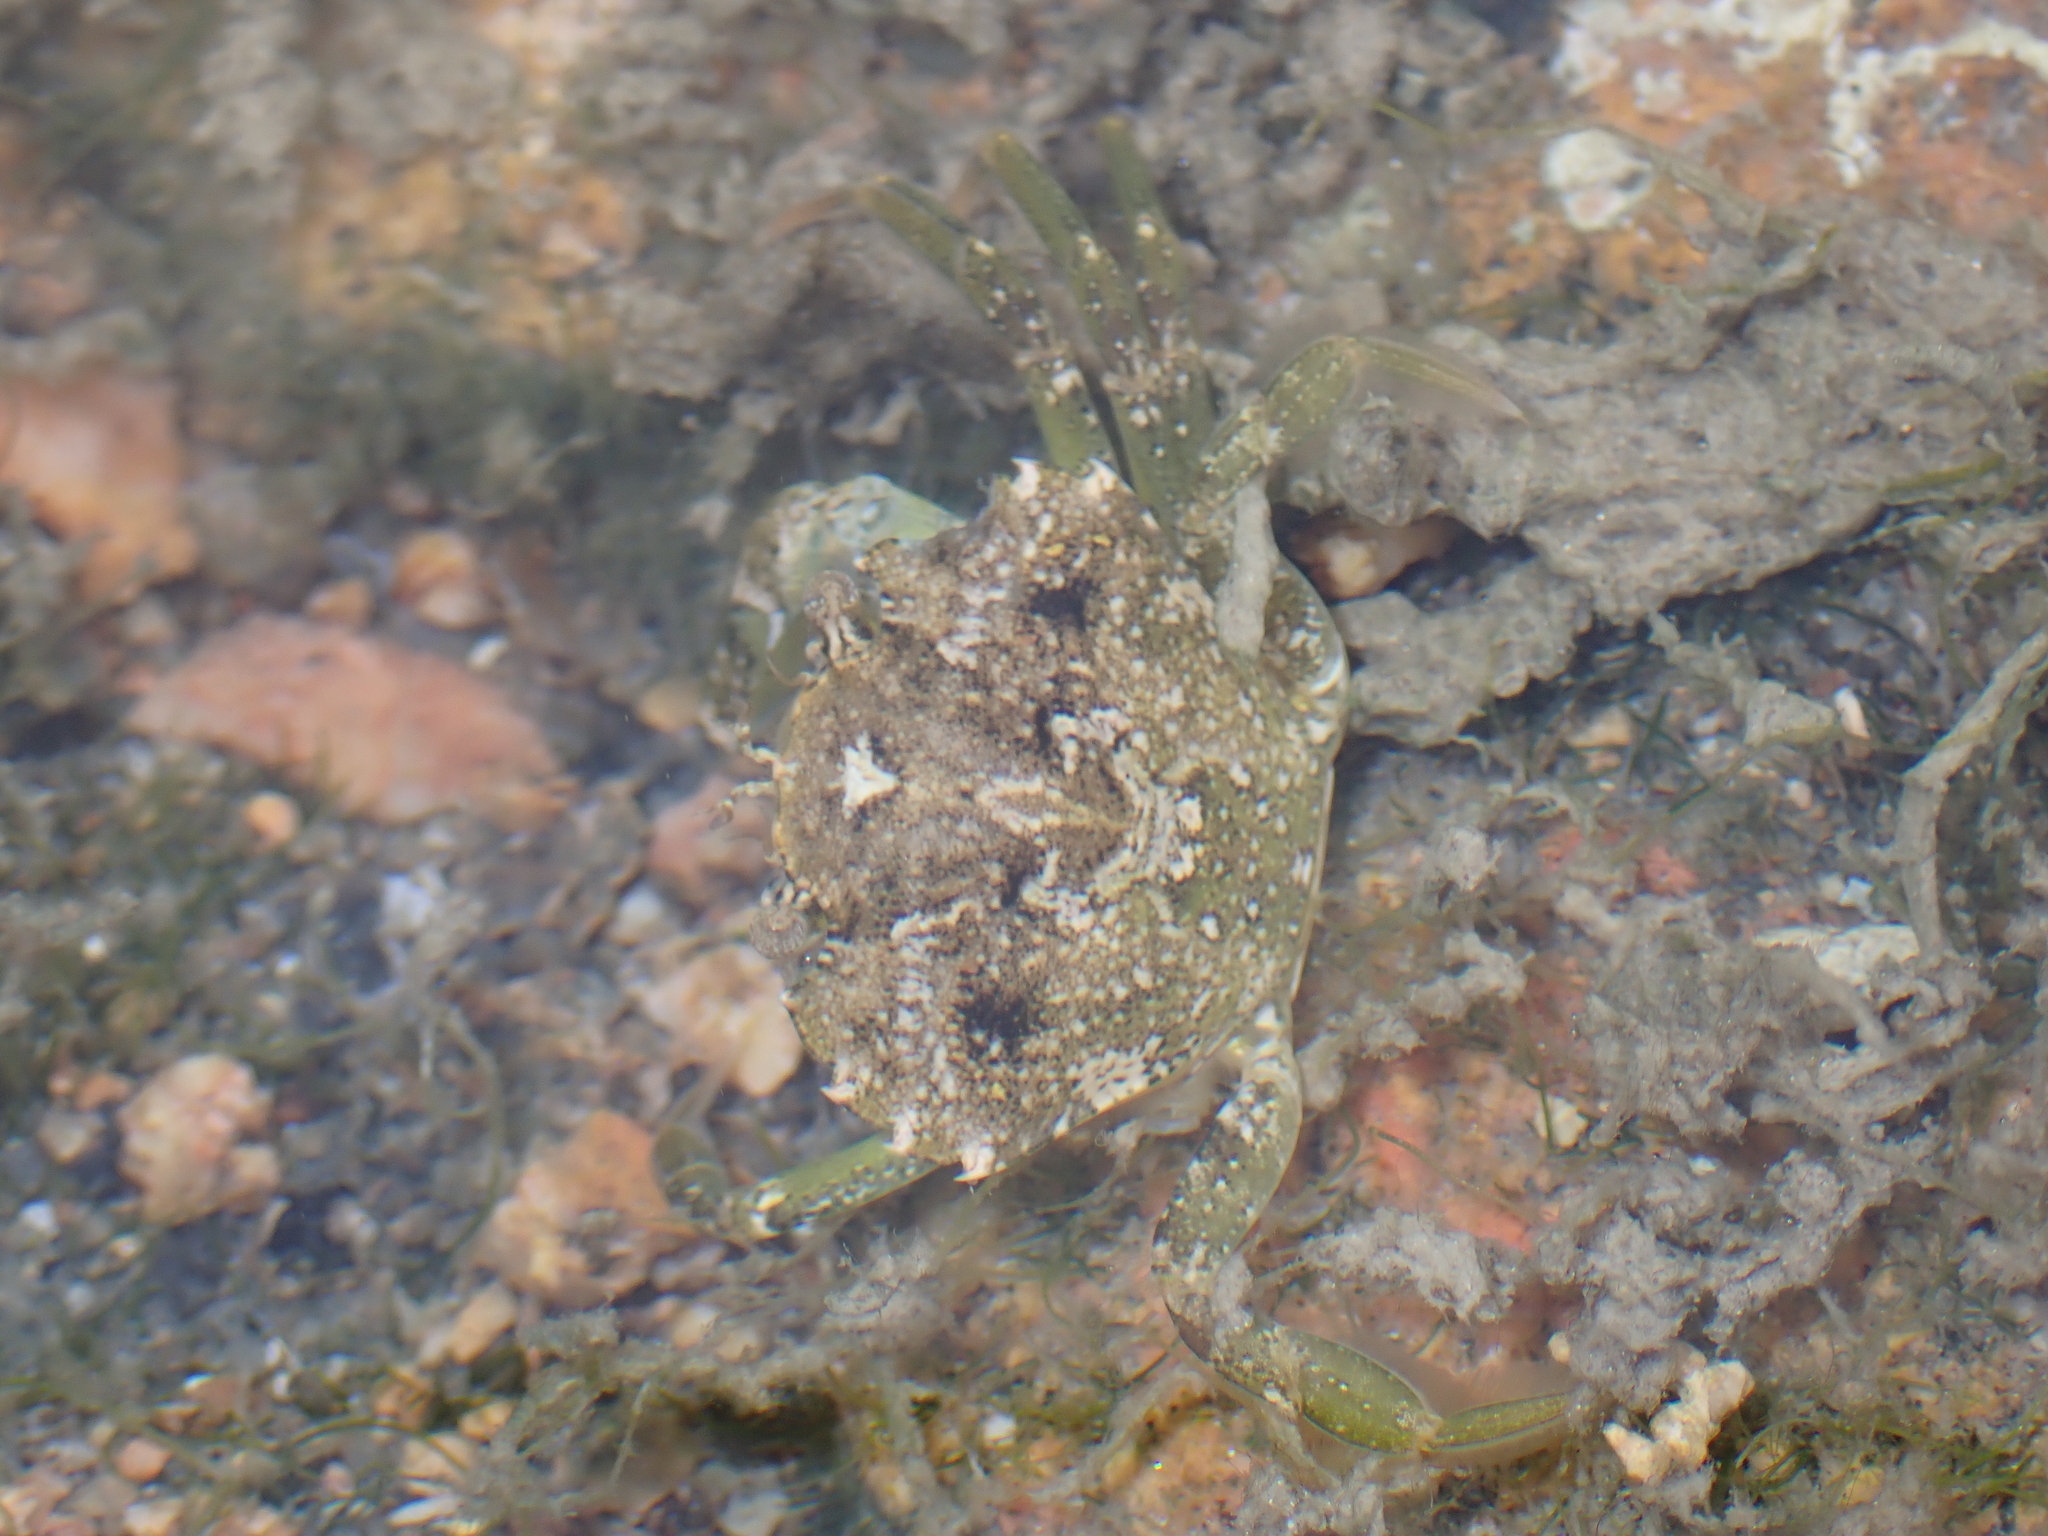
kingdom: Animalia
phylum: Arthropoda
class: Malacostraca
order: Decapoda
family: Carcinidae
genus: Carcinus
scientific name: Carcinus maenas
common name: European green crab
